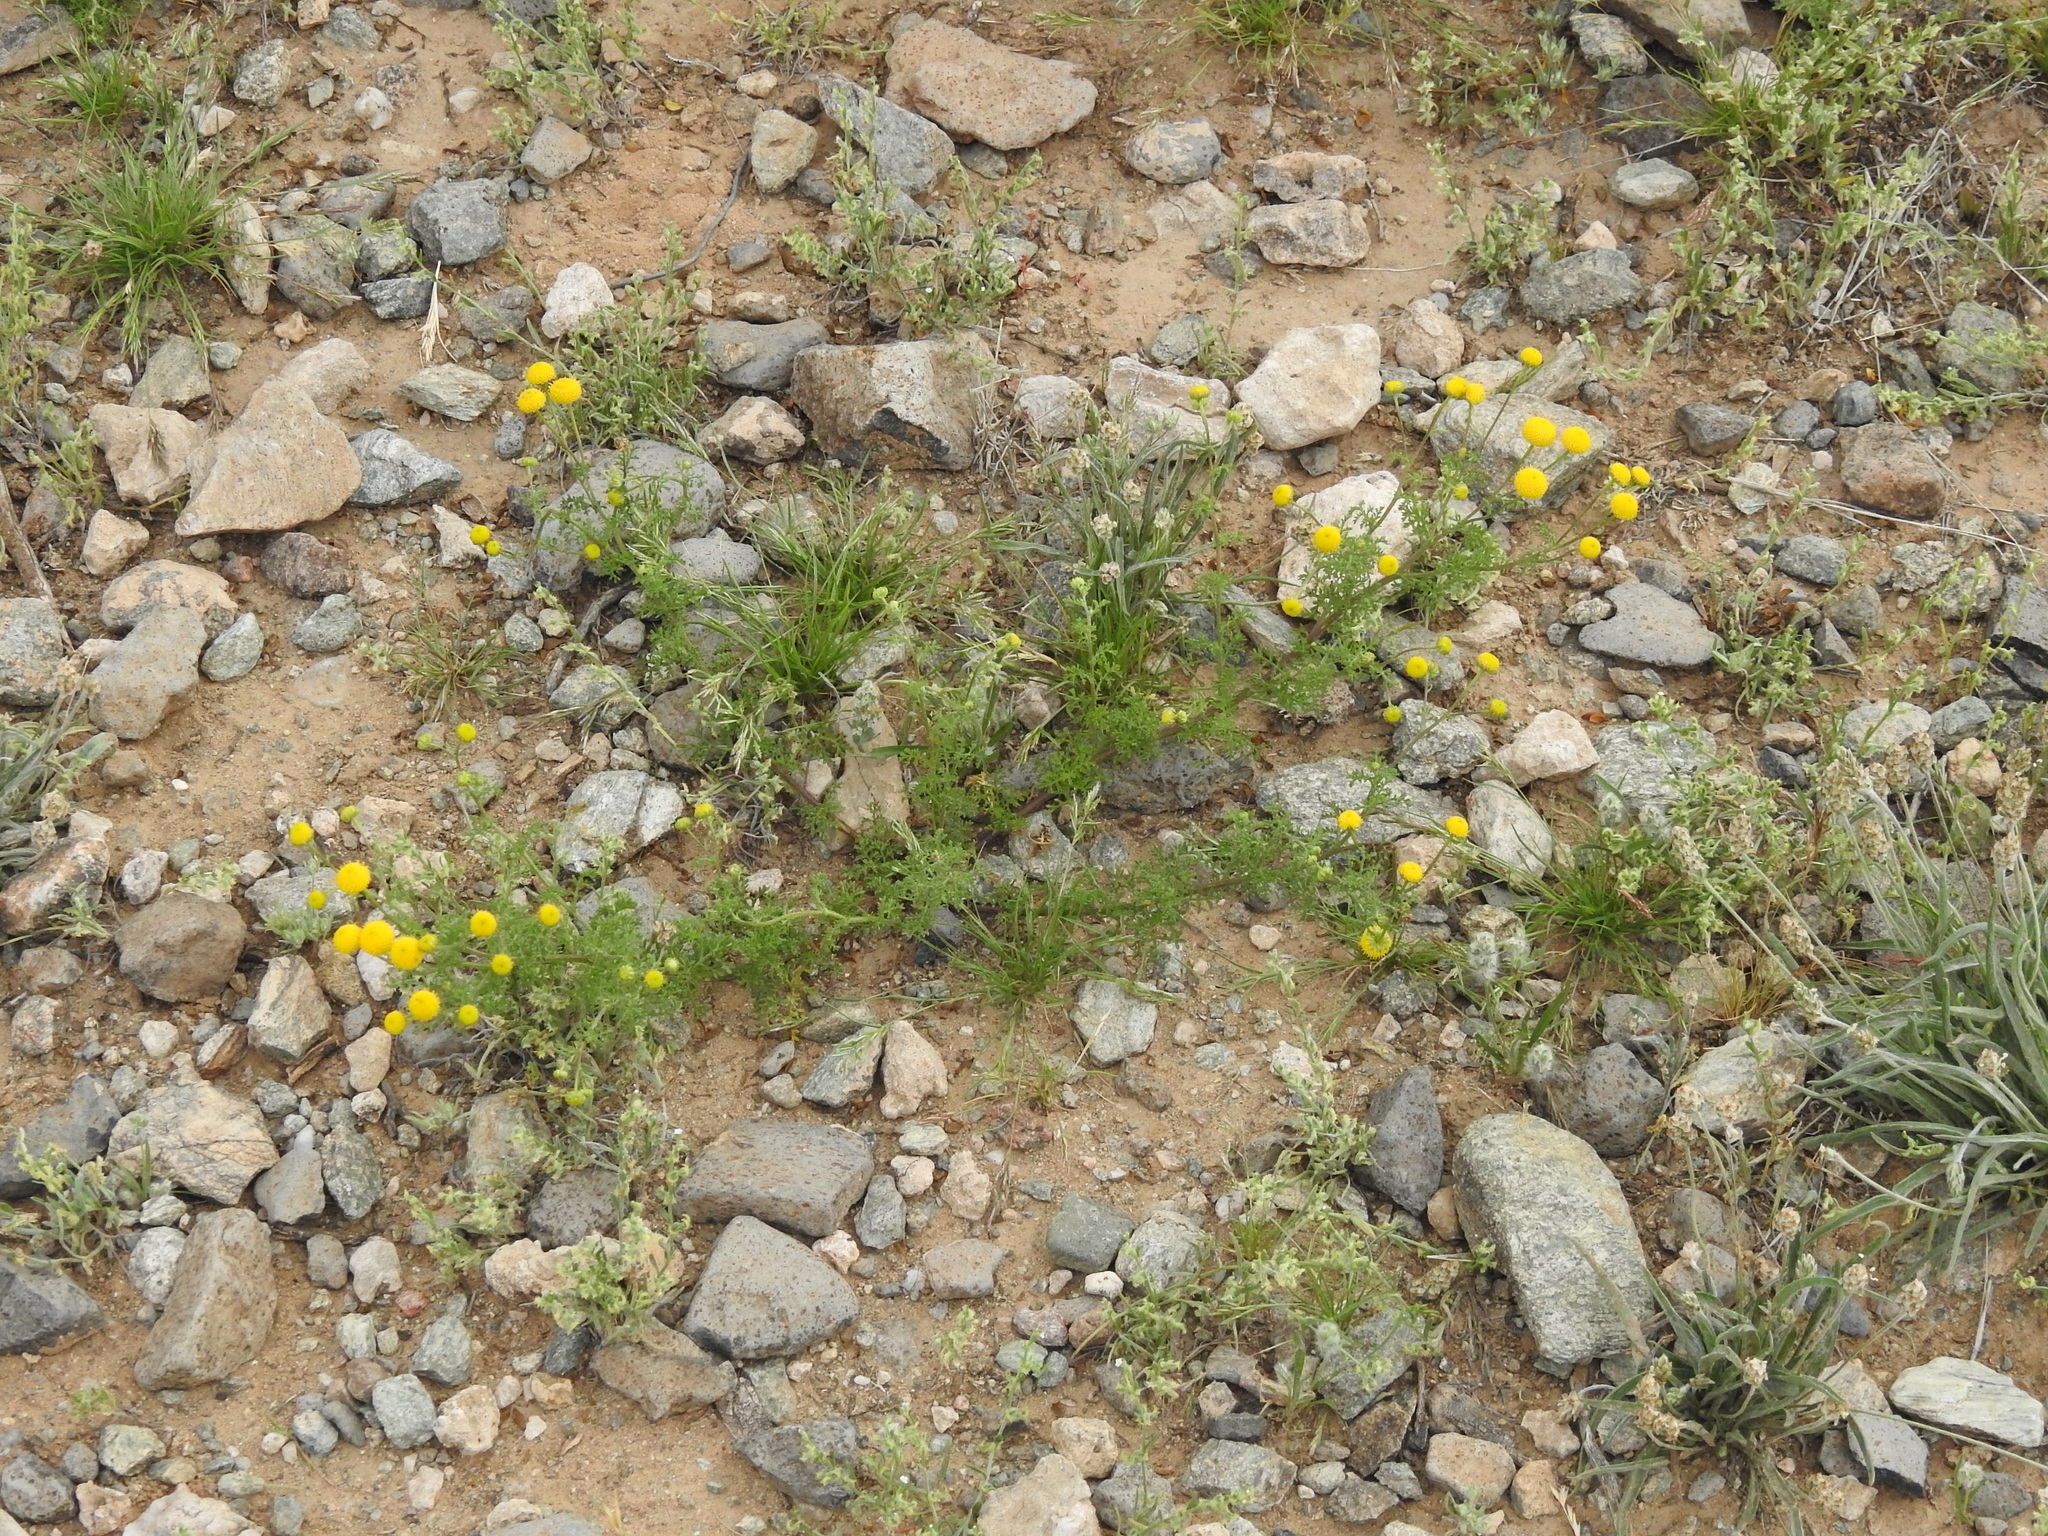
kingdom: Plantae
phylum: Tracheophyta
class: Magnoliopsida
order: Asterales
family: Asteraceae
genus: Oncosiphon
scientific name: Oncosiphon pilulifer
